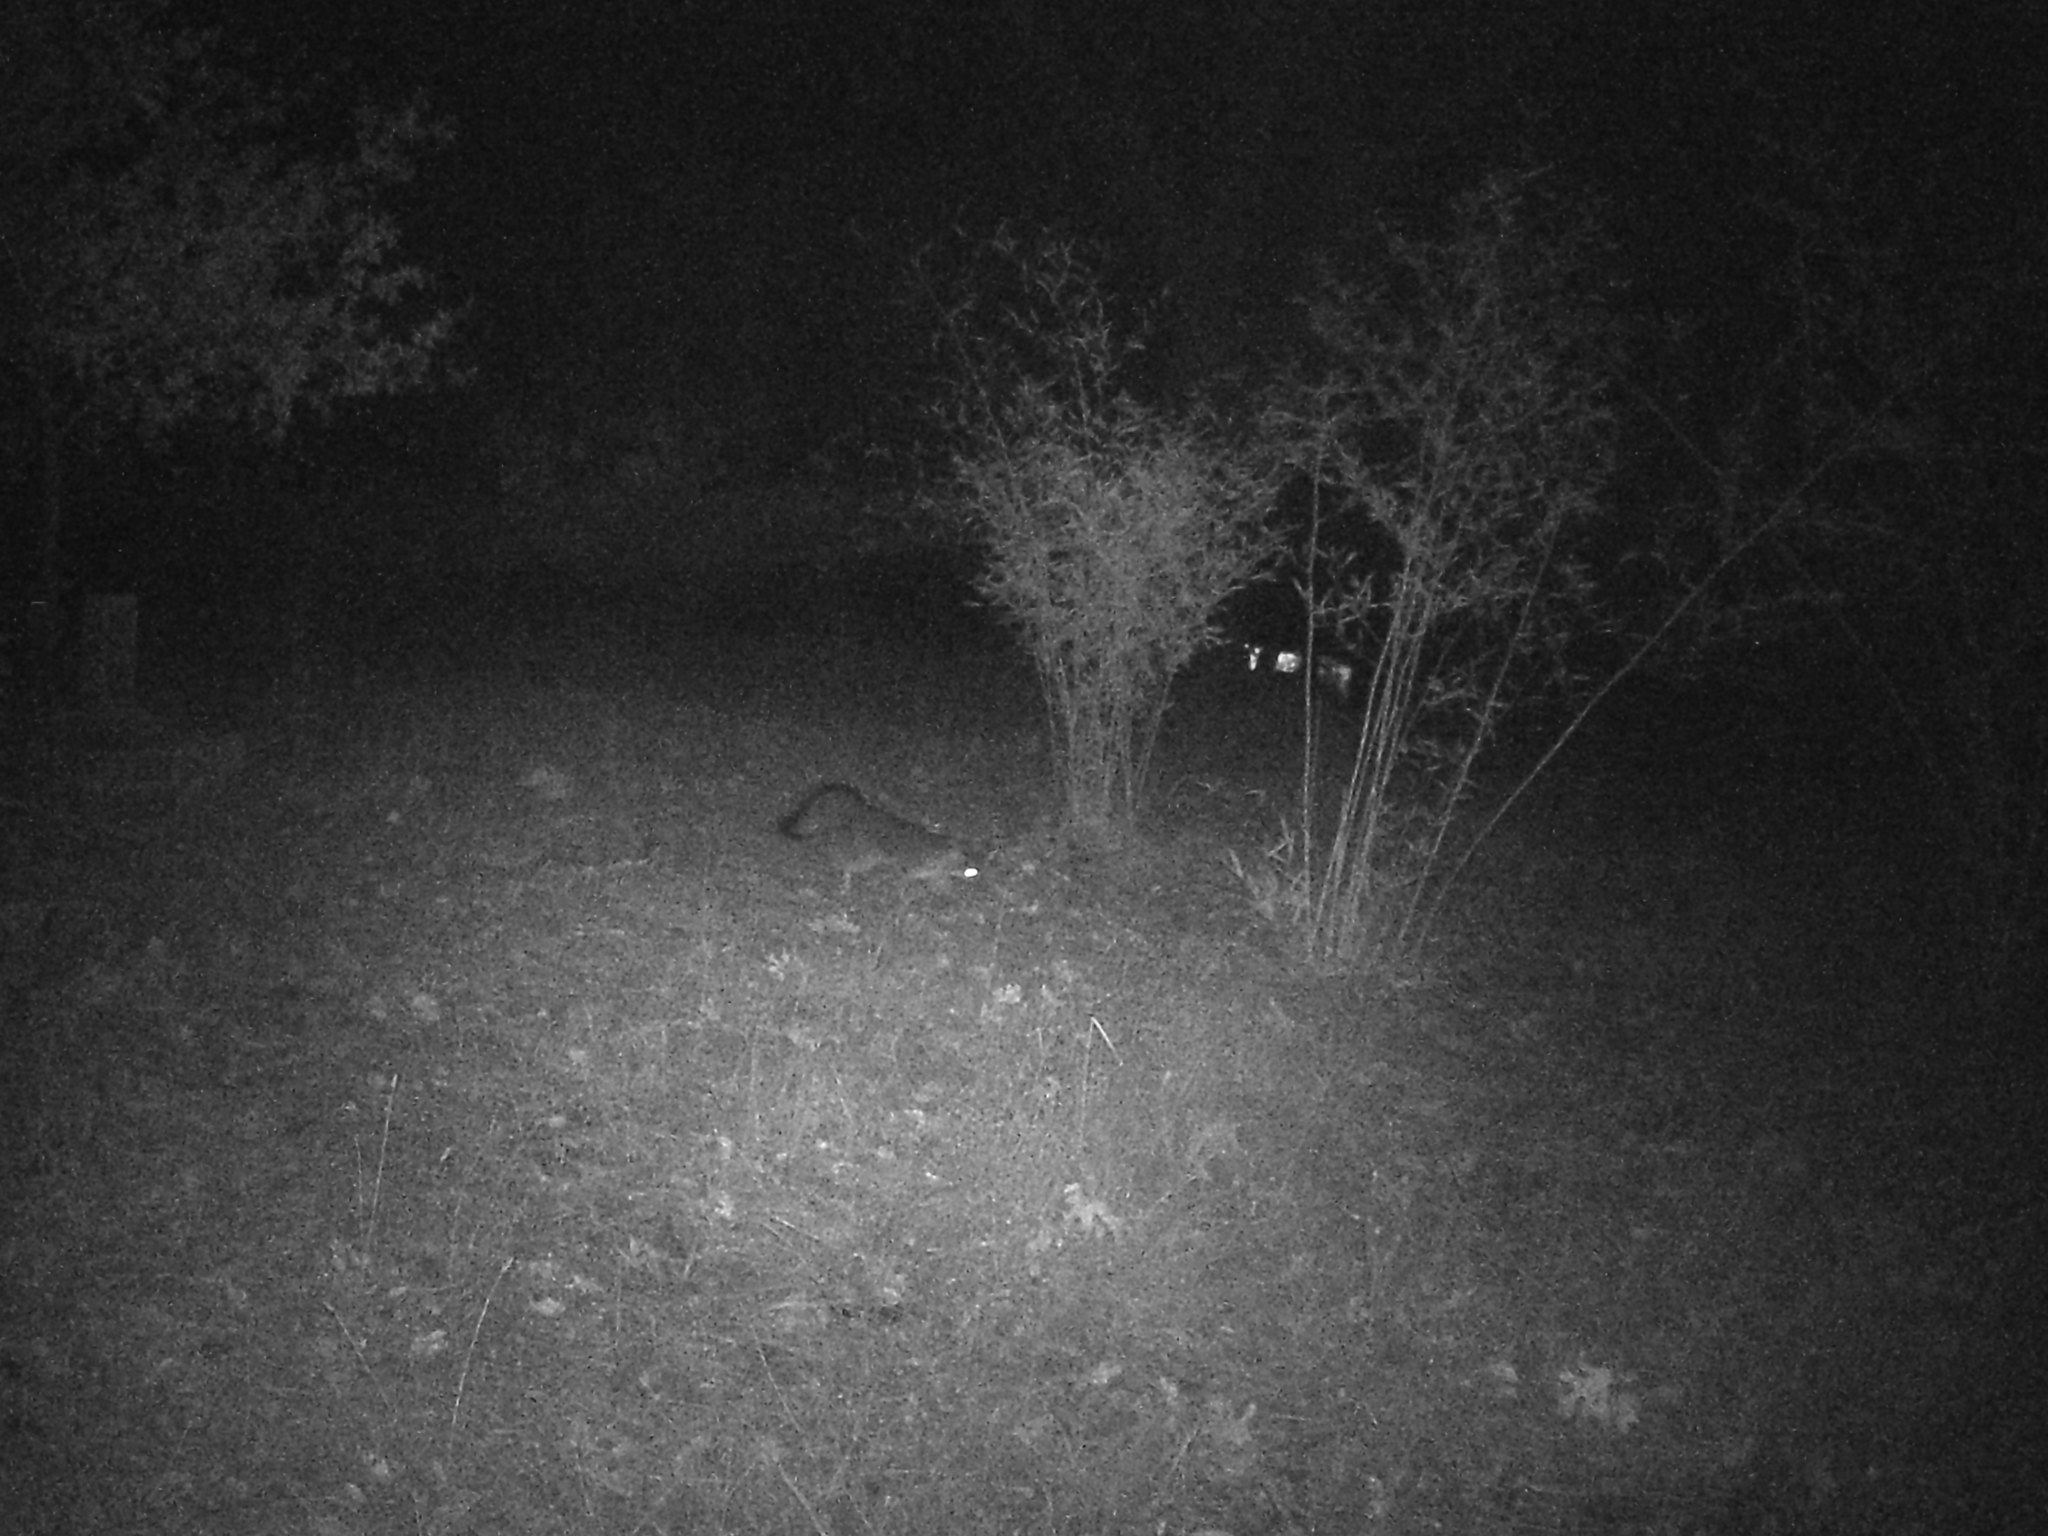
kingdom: Animalia
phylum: Chordata
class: Mammalia
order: Carnivora
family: Canidae
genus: Urocyon
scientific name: Urocyon cinereoargenteus
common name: Gray fox
